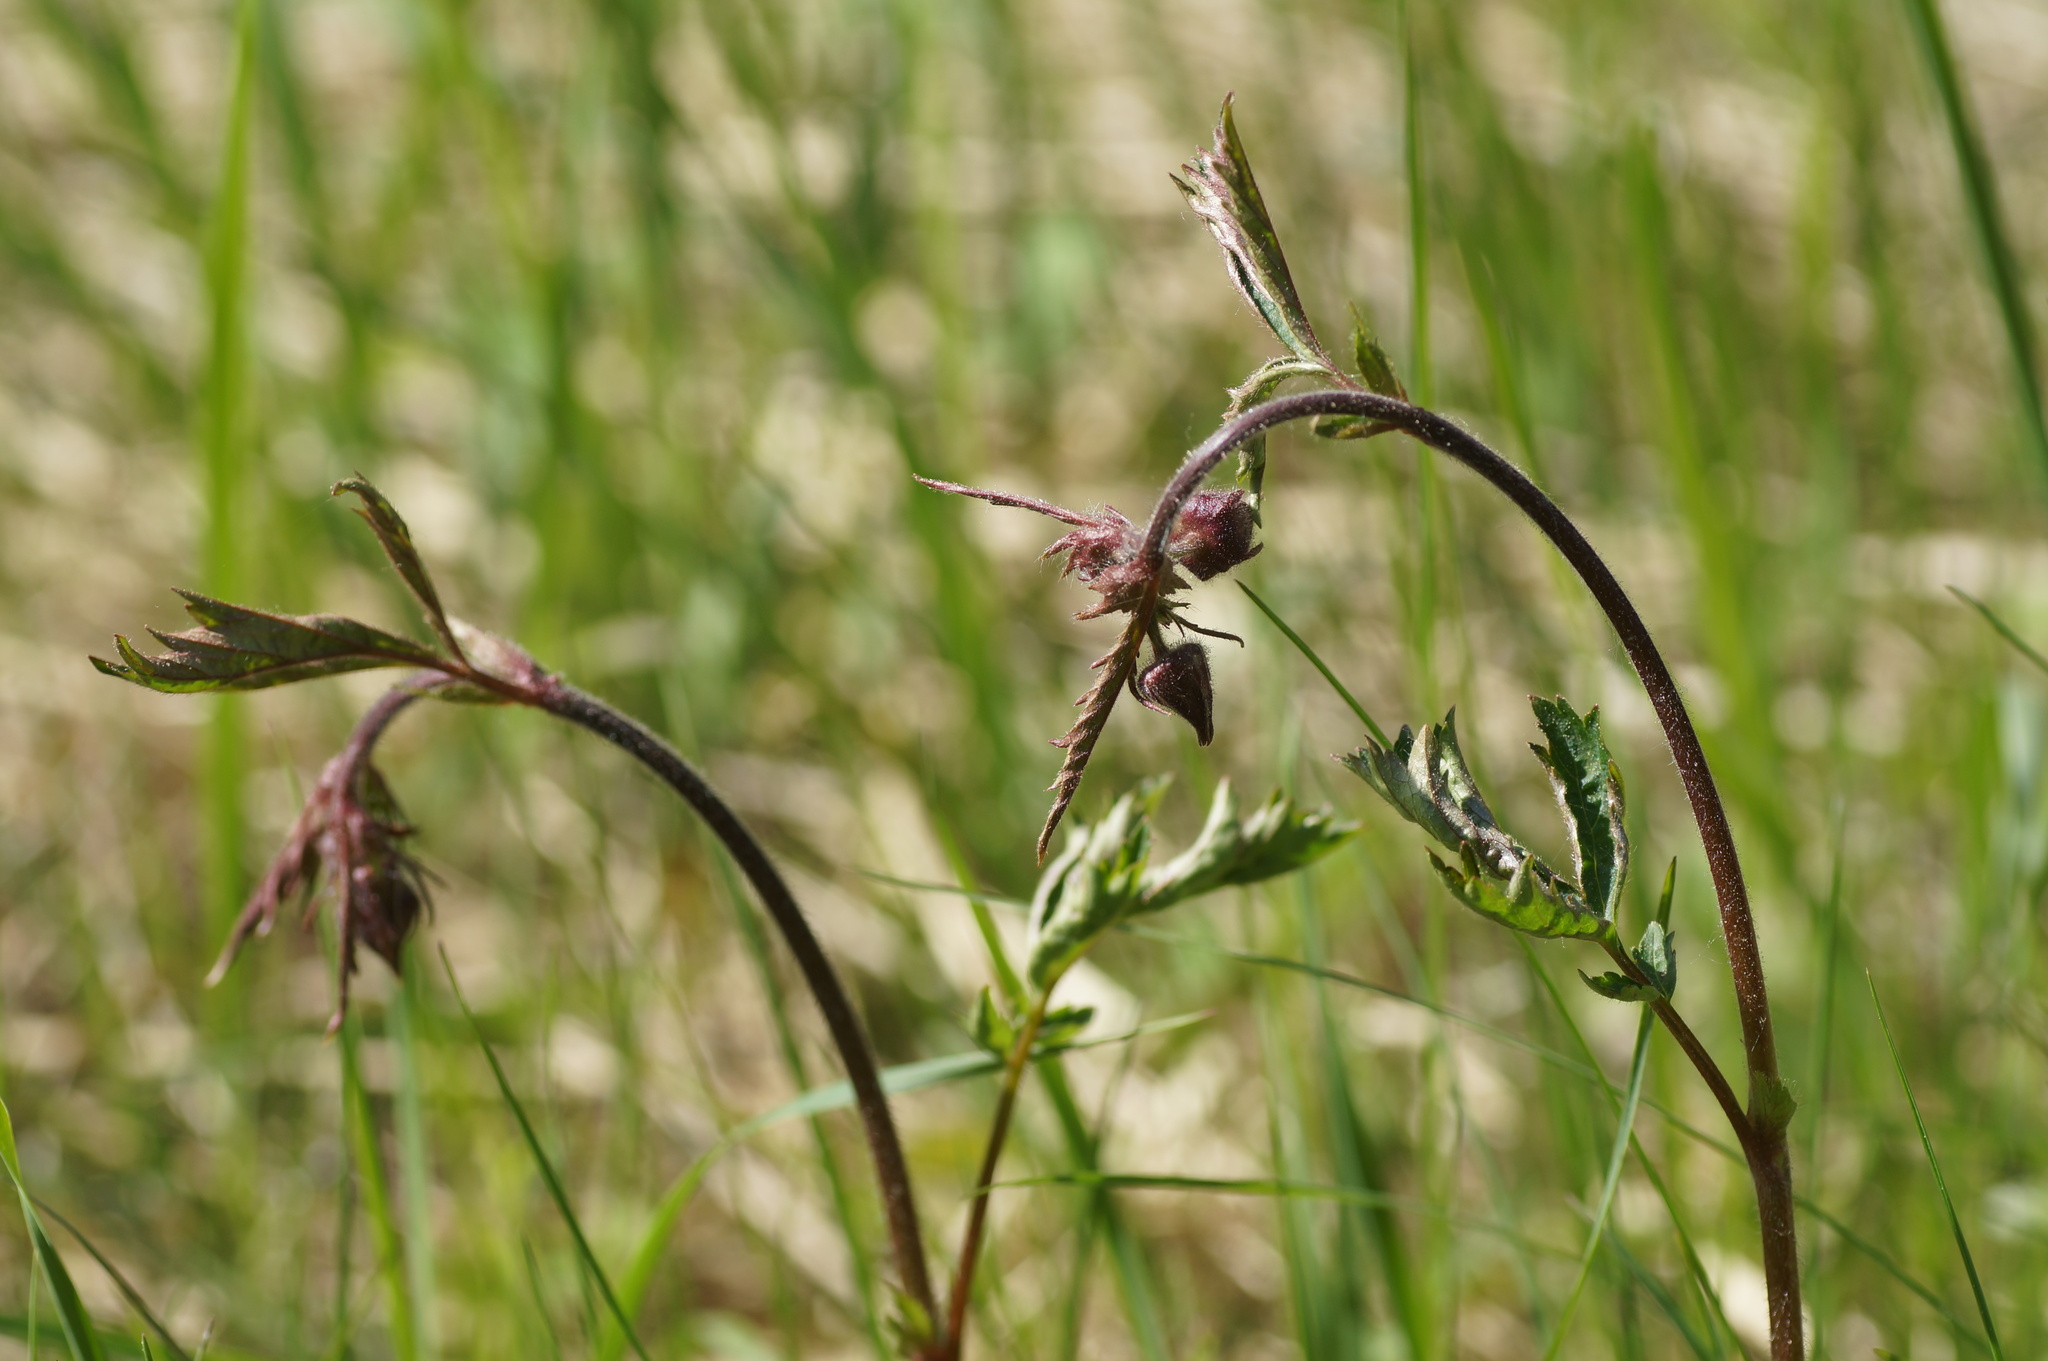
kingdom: Plantae
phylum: Tracheophyta
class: Magnoliopsida
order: Rosales
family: Rosaceae
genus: Geum
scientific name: Geum rivale
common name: Water avens
